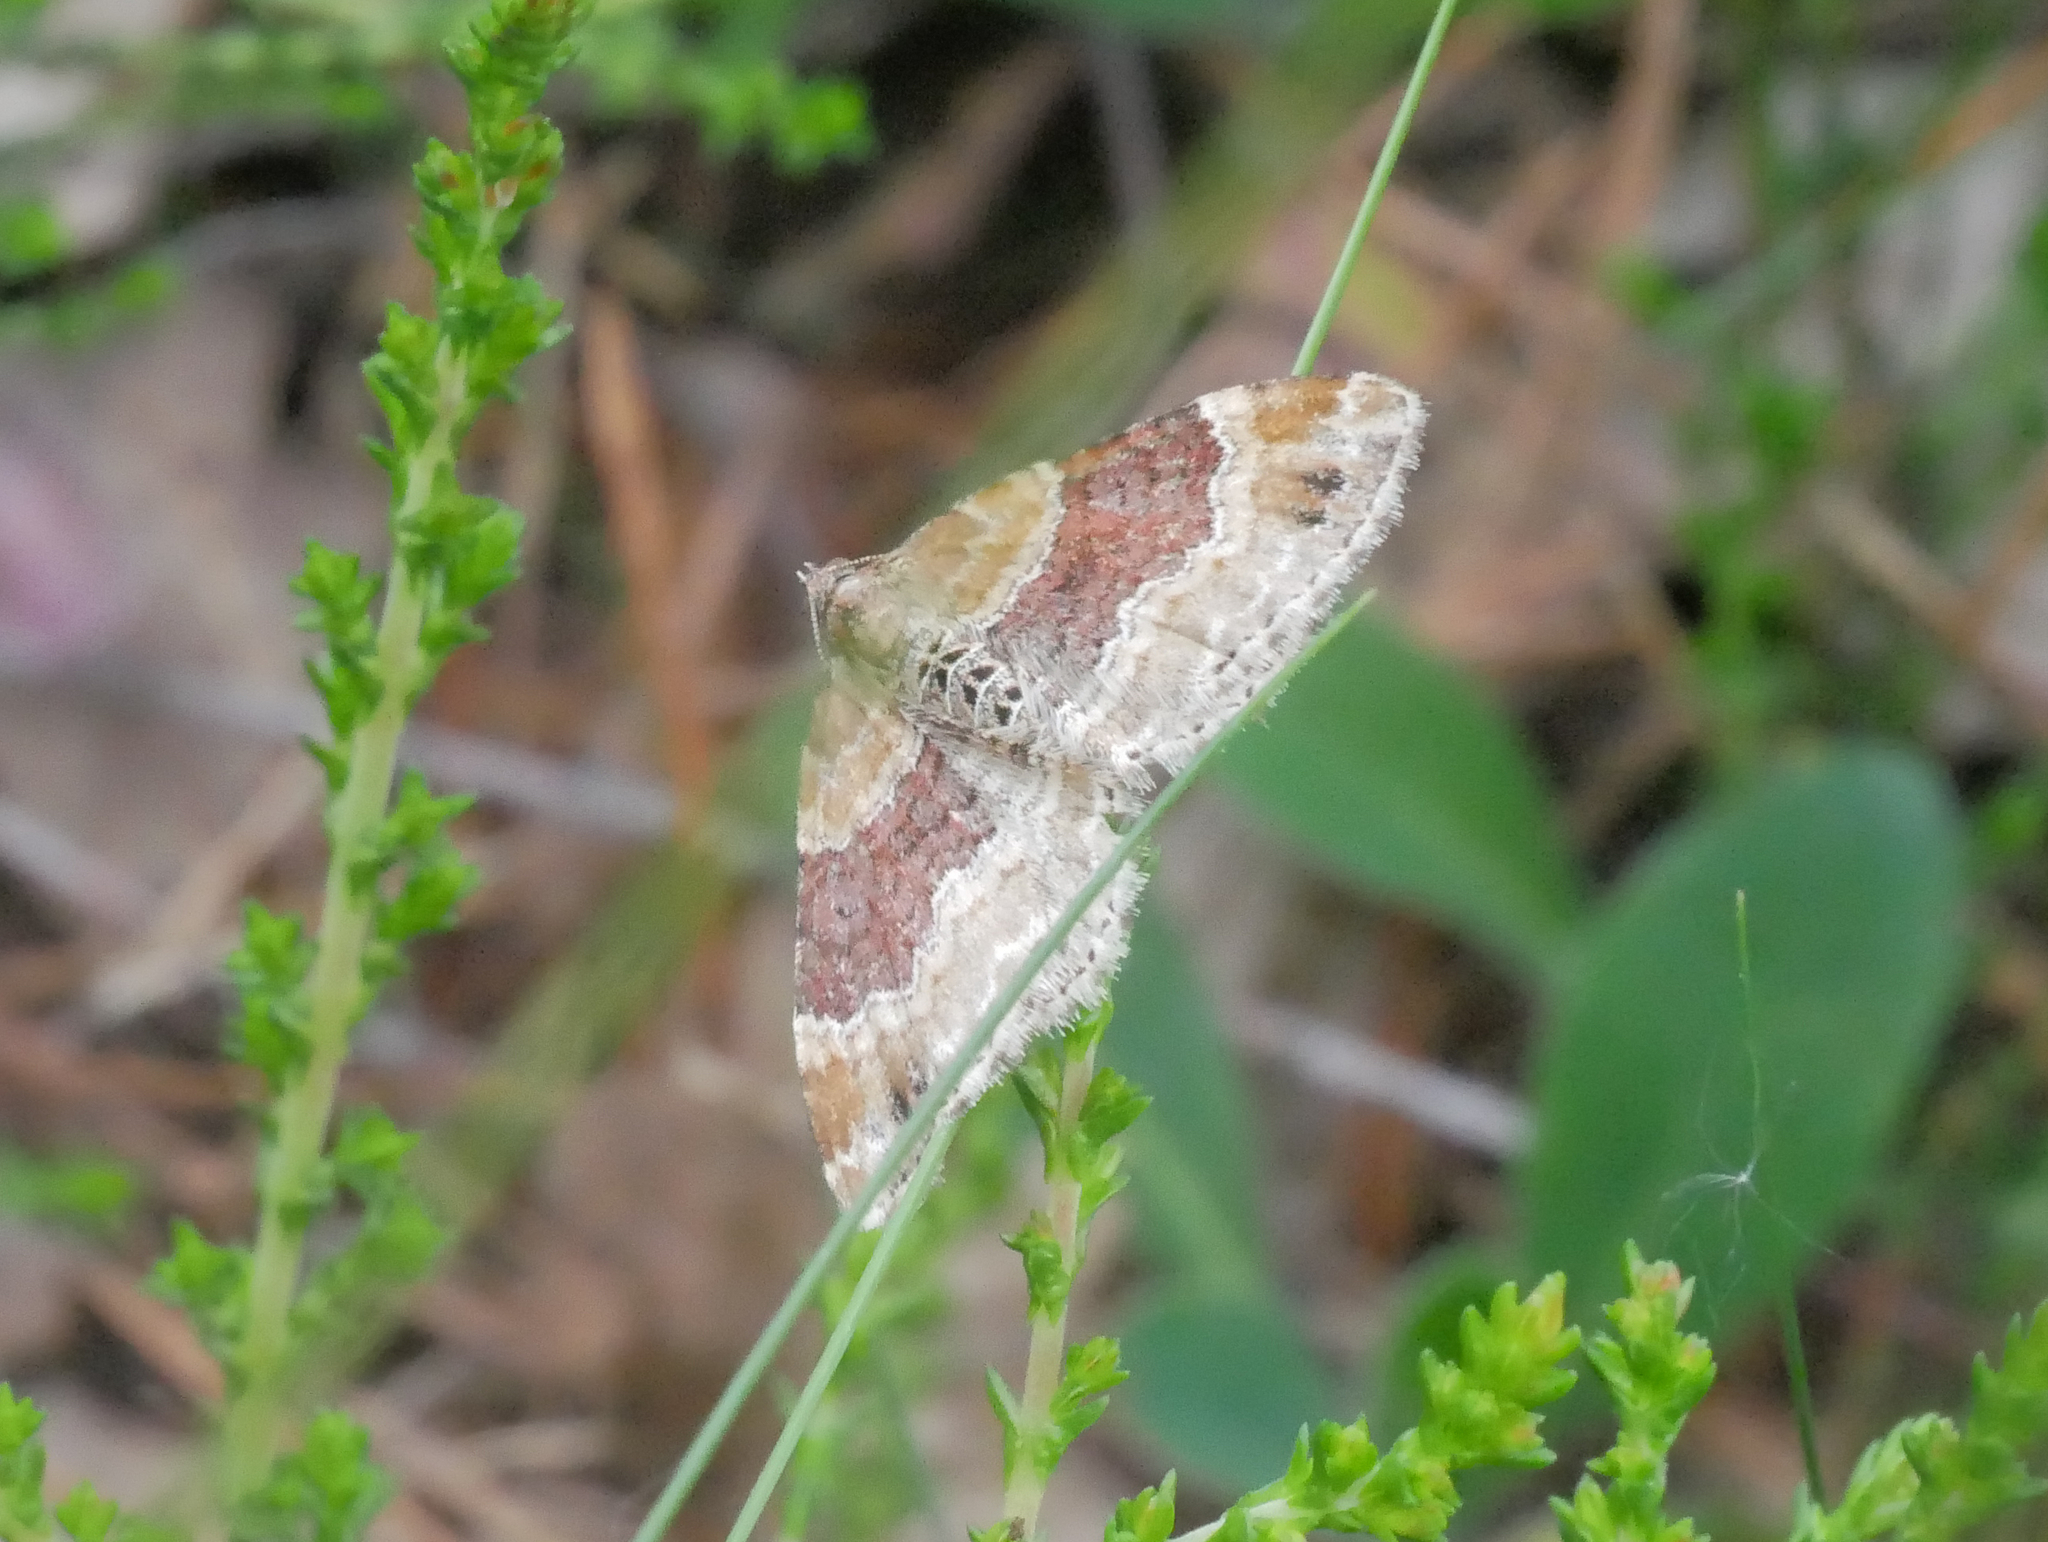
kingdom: Animalia
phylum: Arthropoda
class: Insecta
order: Lepidoptera
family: Geometridae
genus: Xanthorhoe
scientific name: Xanthorhoe spadicearia
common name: Red twin-spot carpet
